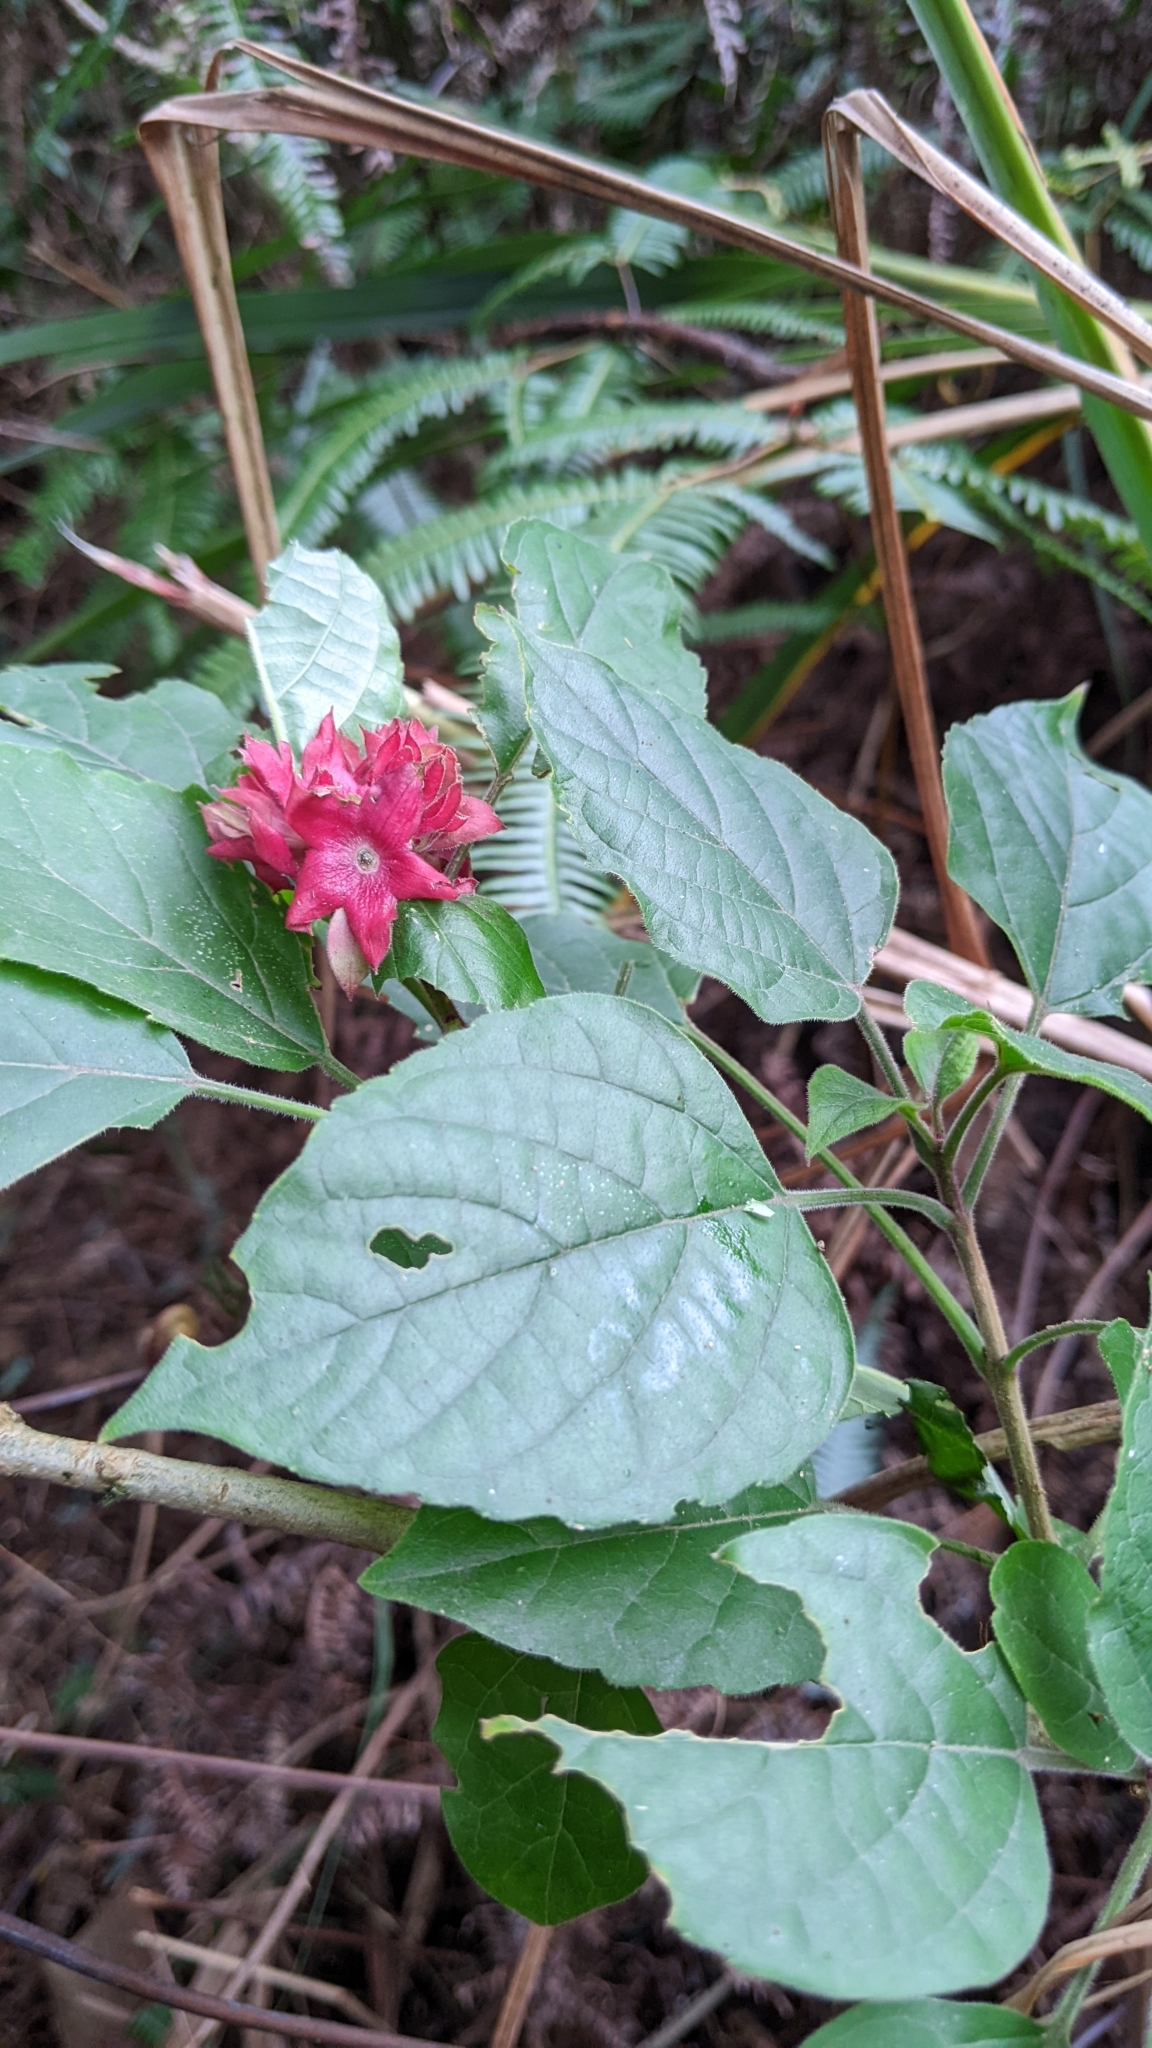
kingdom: Plantae
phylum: Tracheophyta
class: Magnoliopsida
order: Lamiales
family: Lamiaceae
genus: Clerodendrum
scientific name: Clerodendrum canescens
